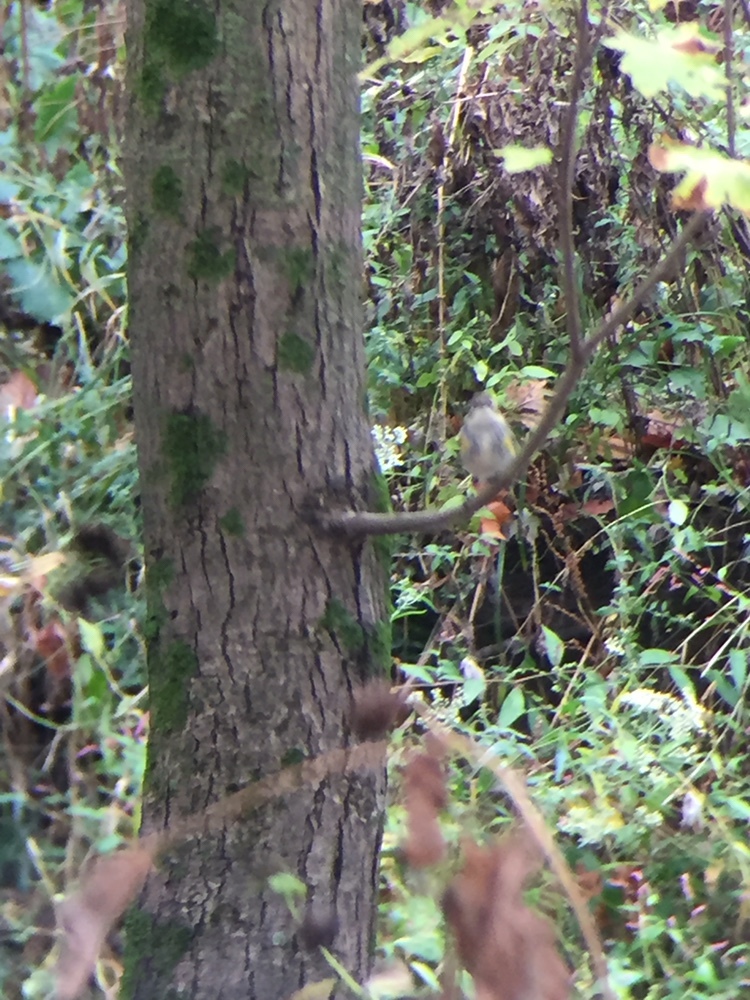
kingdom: Animalia
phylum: Chordata
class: Aves
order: Passeriformes
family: Parulidae
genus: Setophaga
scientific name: Setophaga coronata
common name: Myrtle warbler
